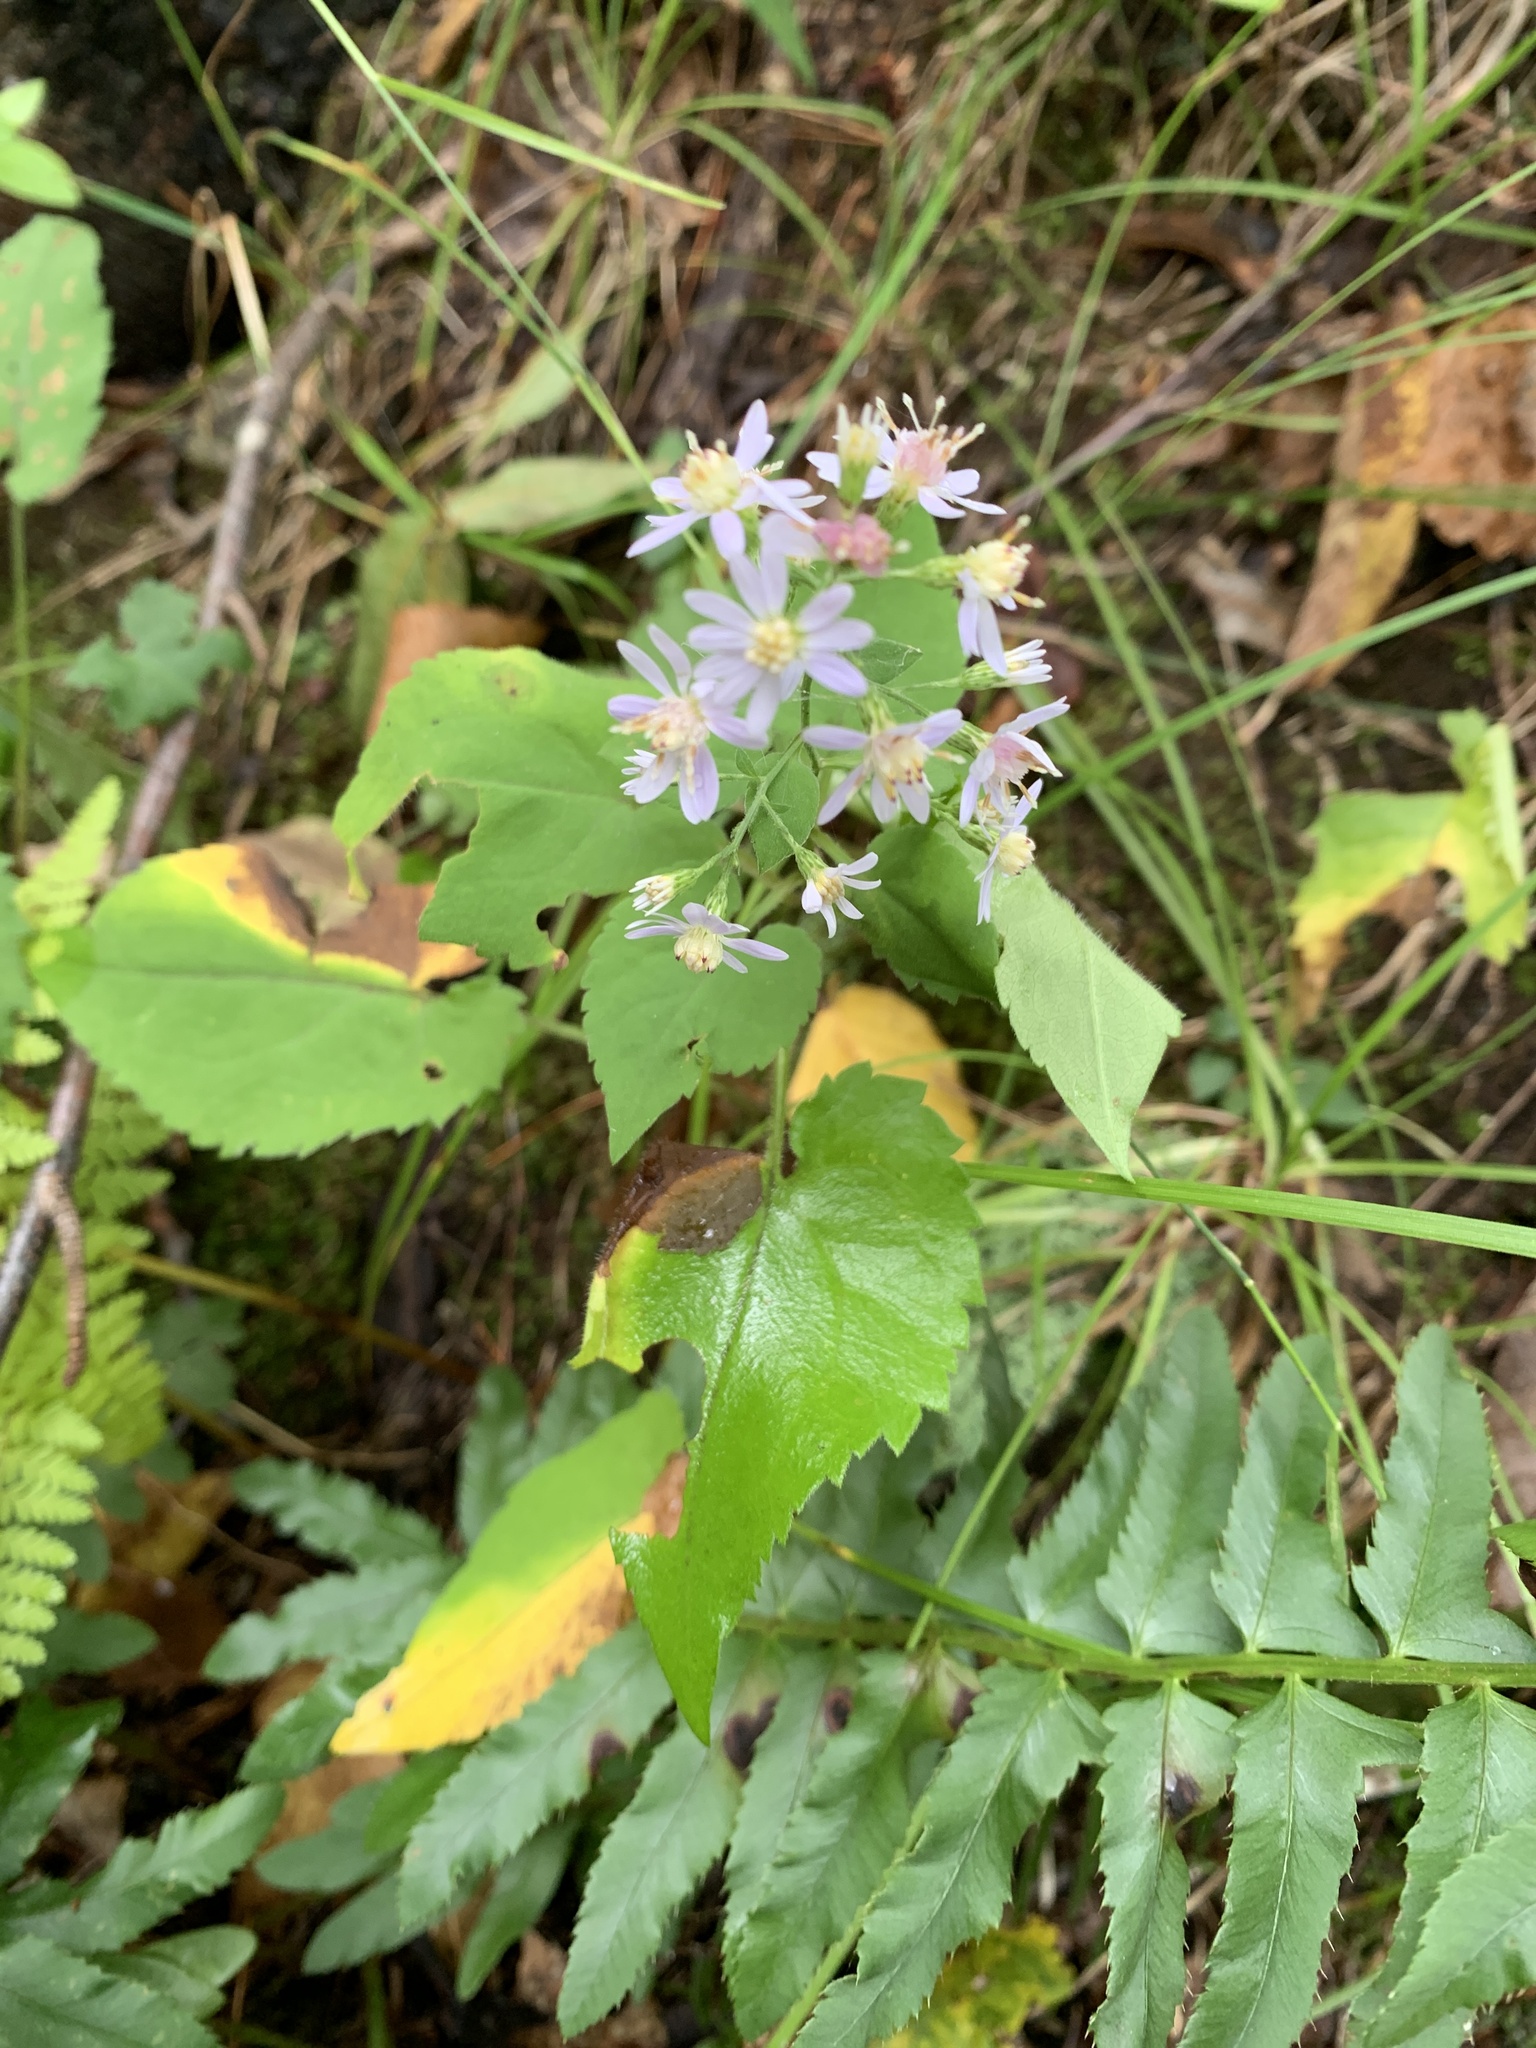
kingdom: Plantae
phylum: Tracheophyta
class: Magnoliopsida
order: Asterales
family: Asteraceae
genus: Symphyotrichum
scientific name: Symphyotrichum cordifolium
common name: Beeweed
